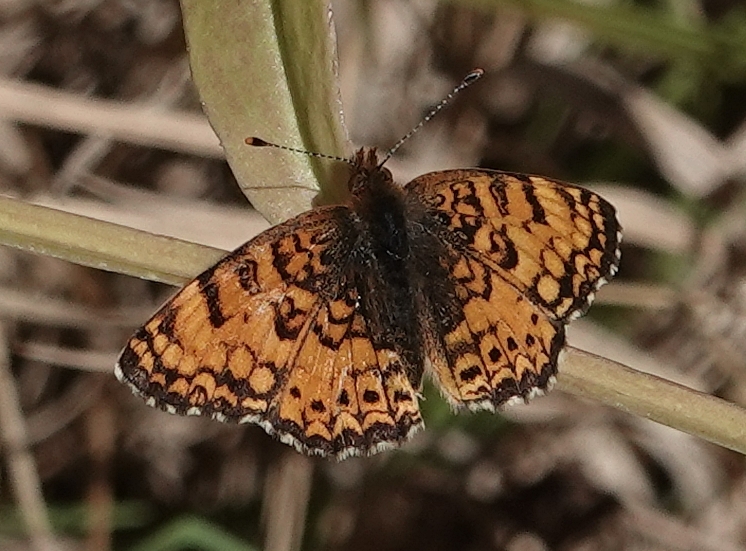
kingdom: Animalia
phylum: Arthropoda
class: Insecta
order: Lepidoptera
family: Nymphalidae
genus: Eresia
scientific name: Eresia aveyrona
